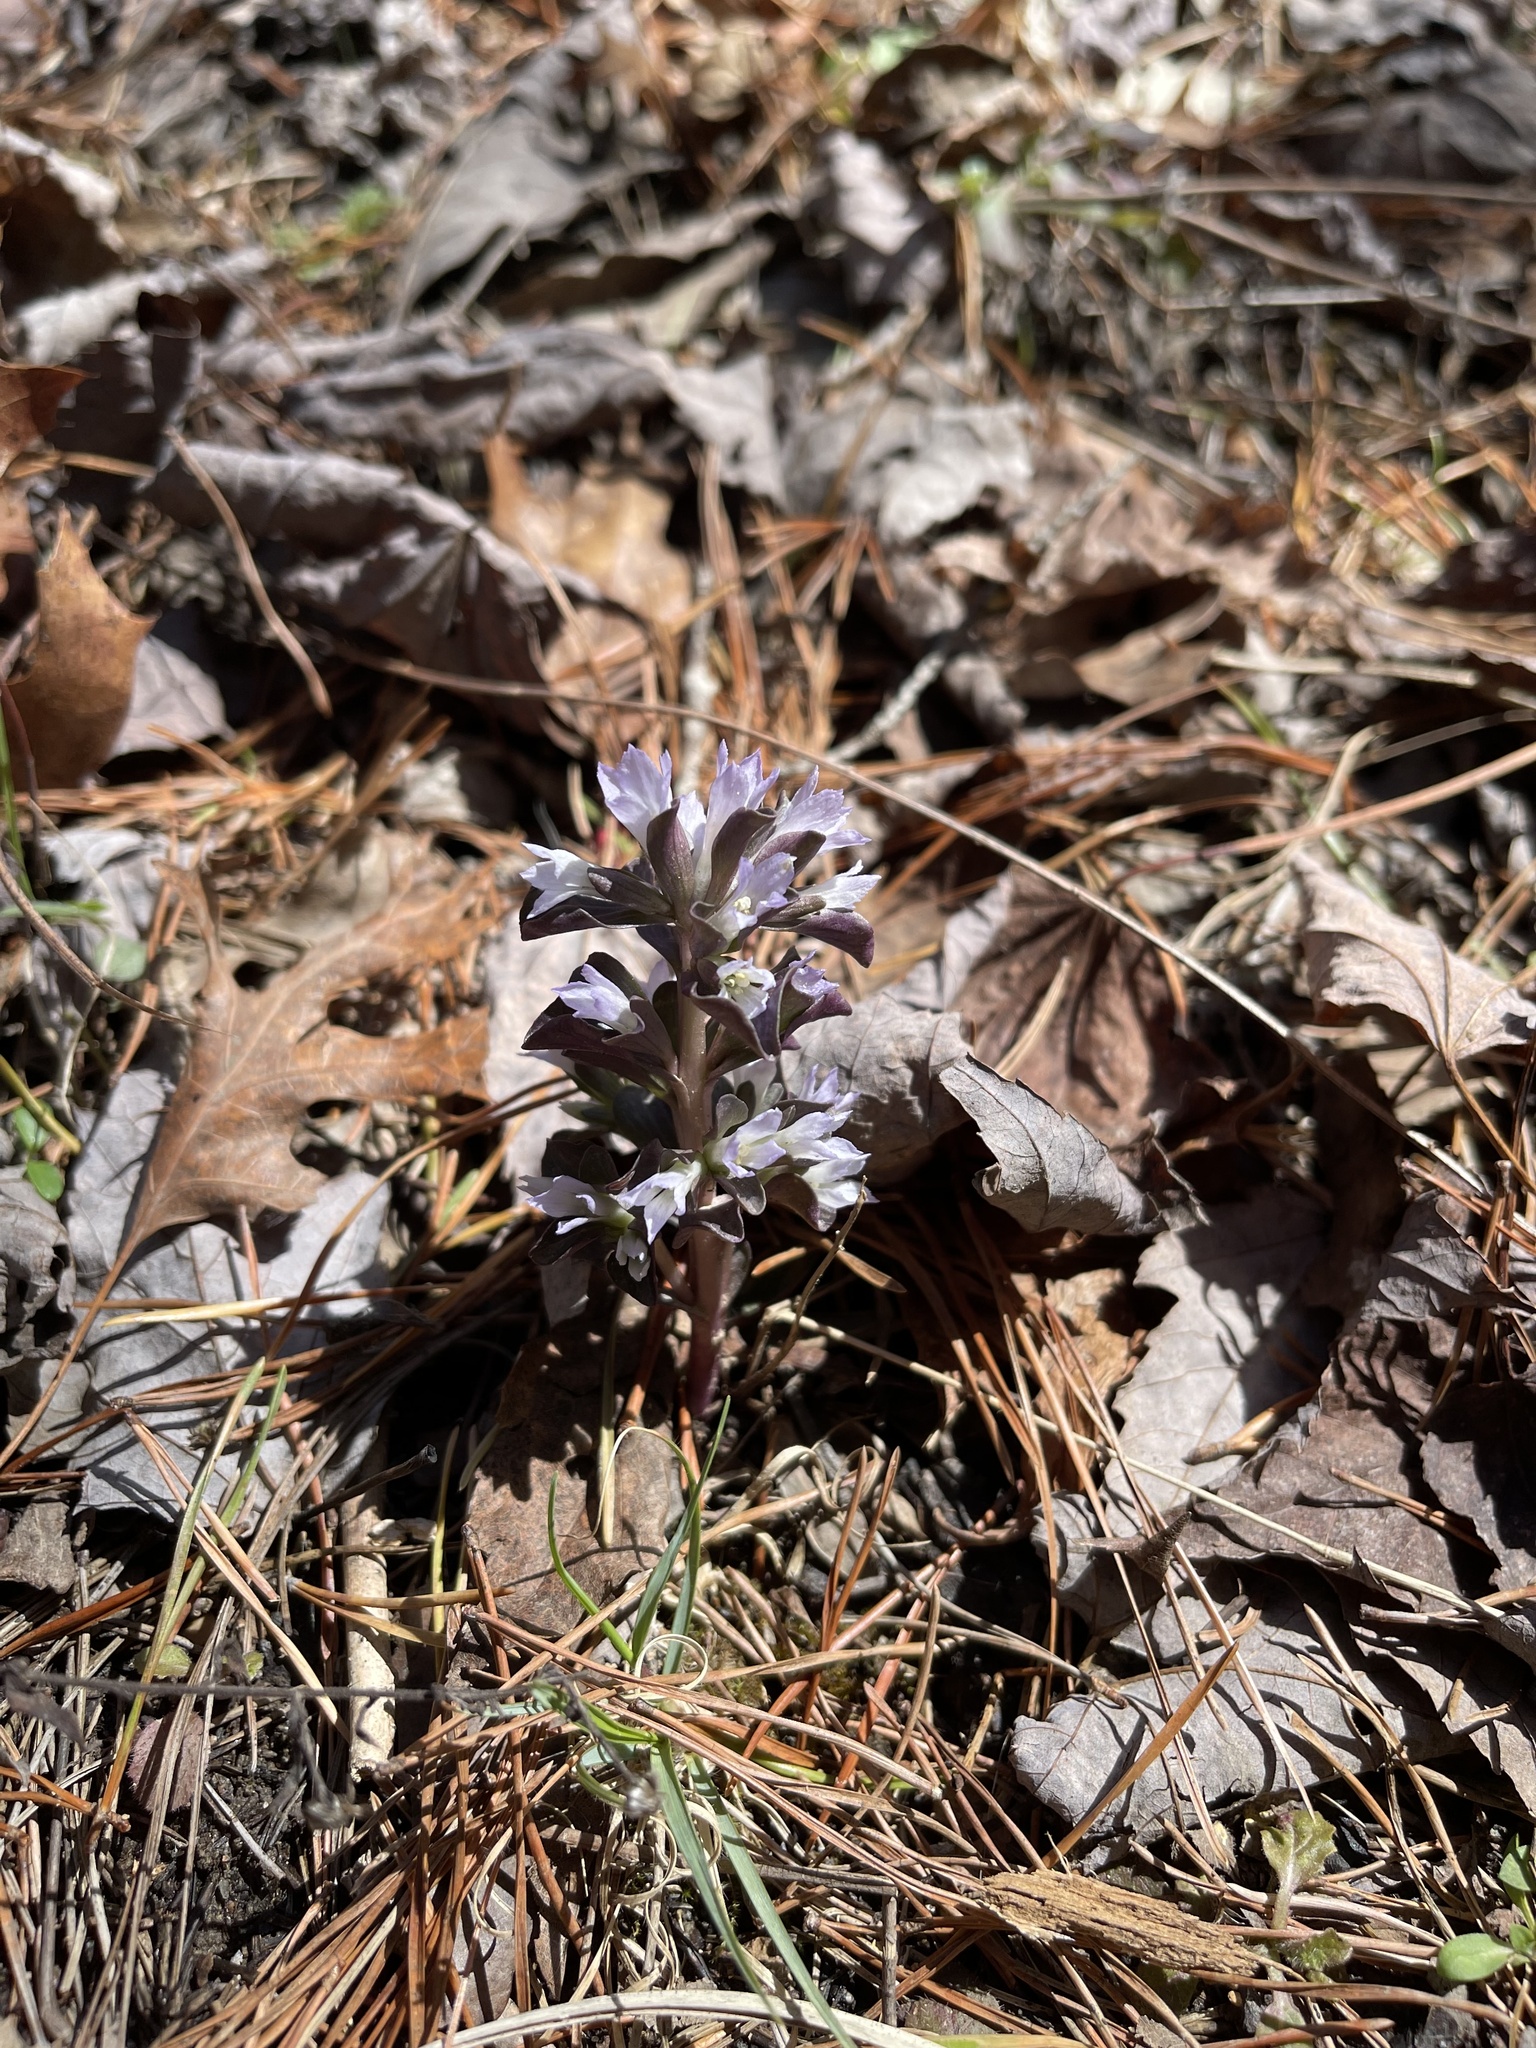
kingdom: Plantae
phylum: Tracheophyta
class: Magnoliopsida
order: Gentianales
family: Gentianaceae
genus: Obolaria
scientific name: Obolaria virginica
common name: Pennywort
